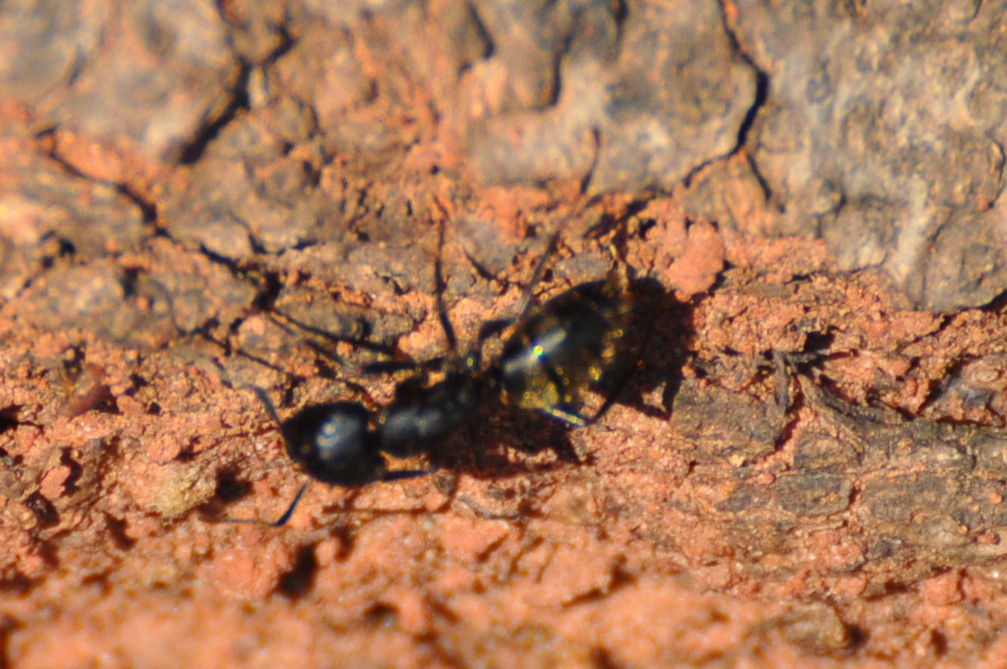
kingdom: Animalia
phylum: Arthropoda
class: Insecta
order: Hymenoptera
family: Formicidae
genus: Camponotus
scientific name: Camponotus pennsylvanicus
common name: Black carpenter ant
